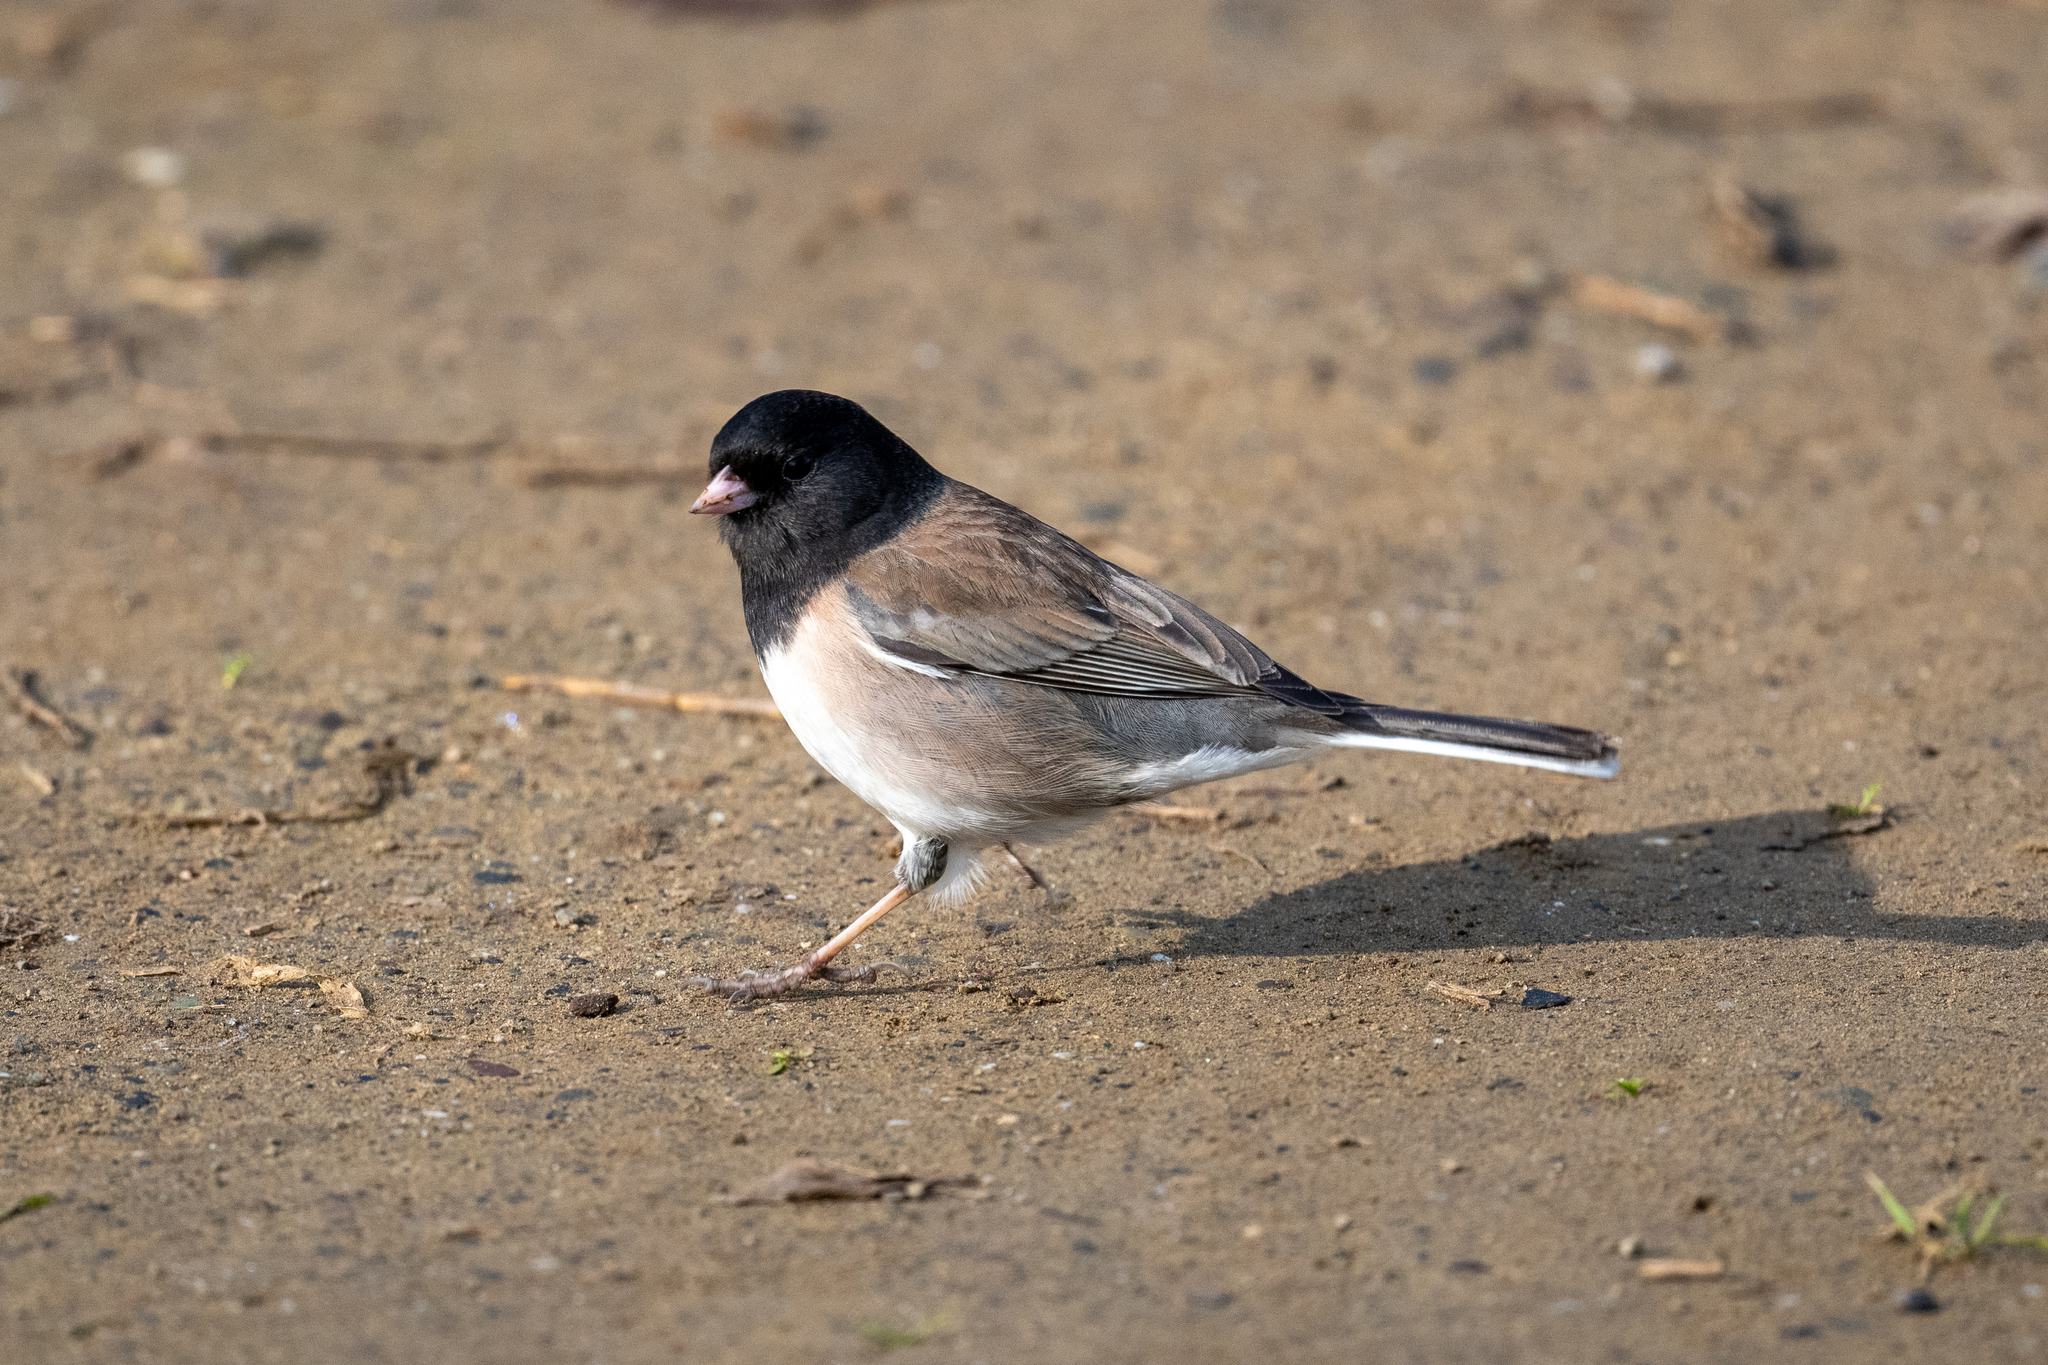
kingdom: Animalia
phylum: Chordata
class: Aves
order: Passeriformes
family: Passerellidae
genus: Junco
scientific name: Junco hyemalis
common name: Dark-eyed junco
